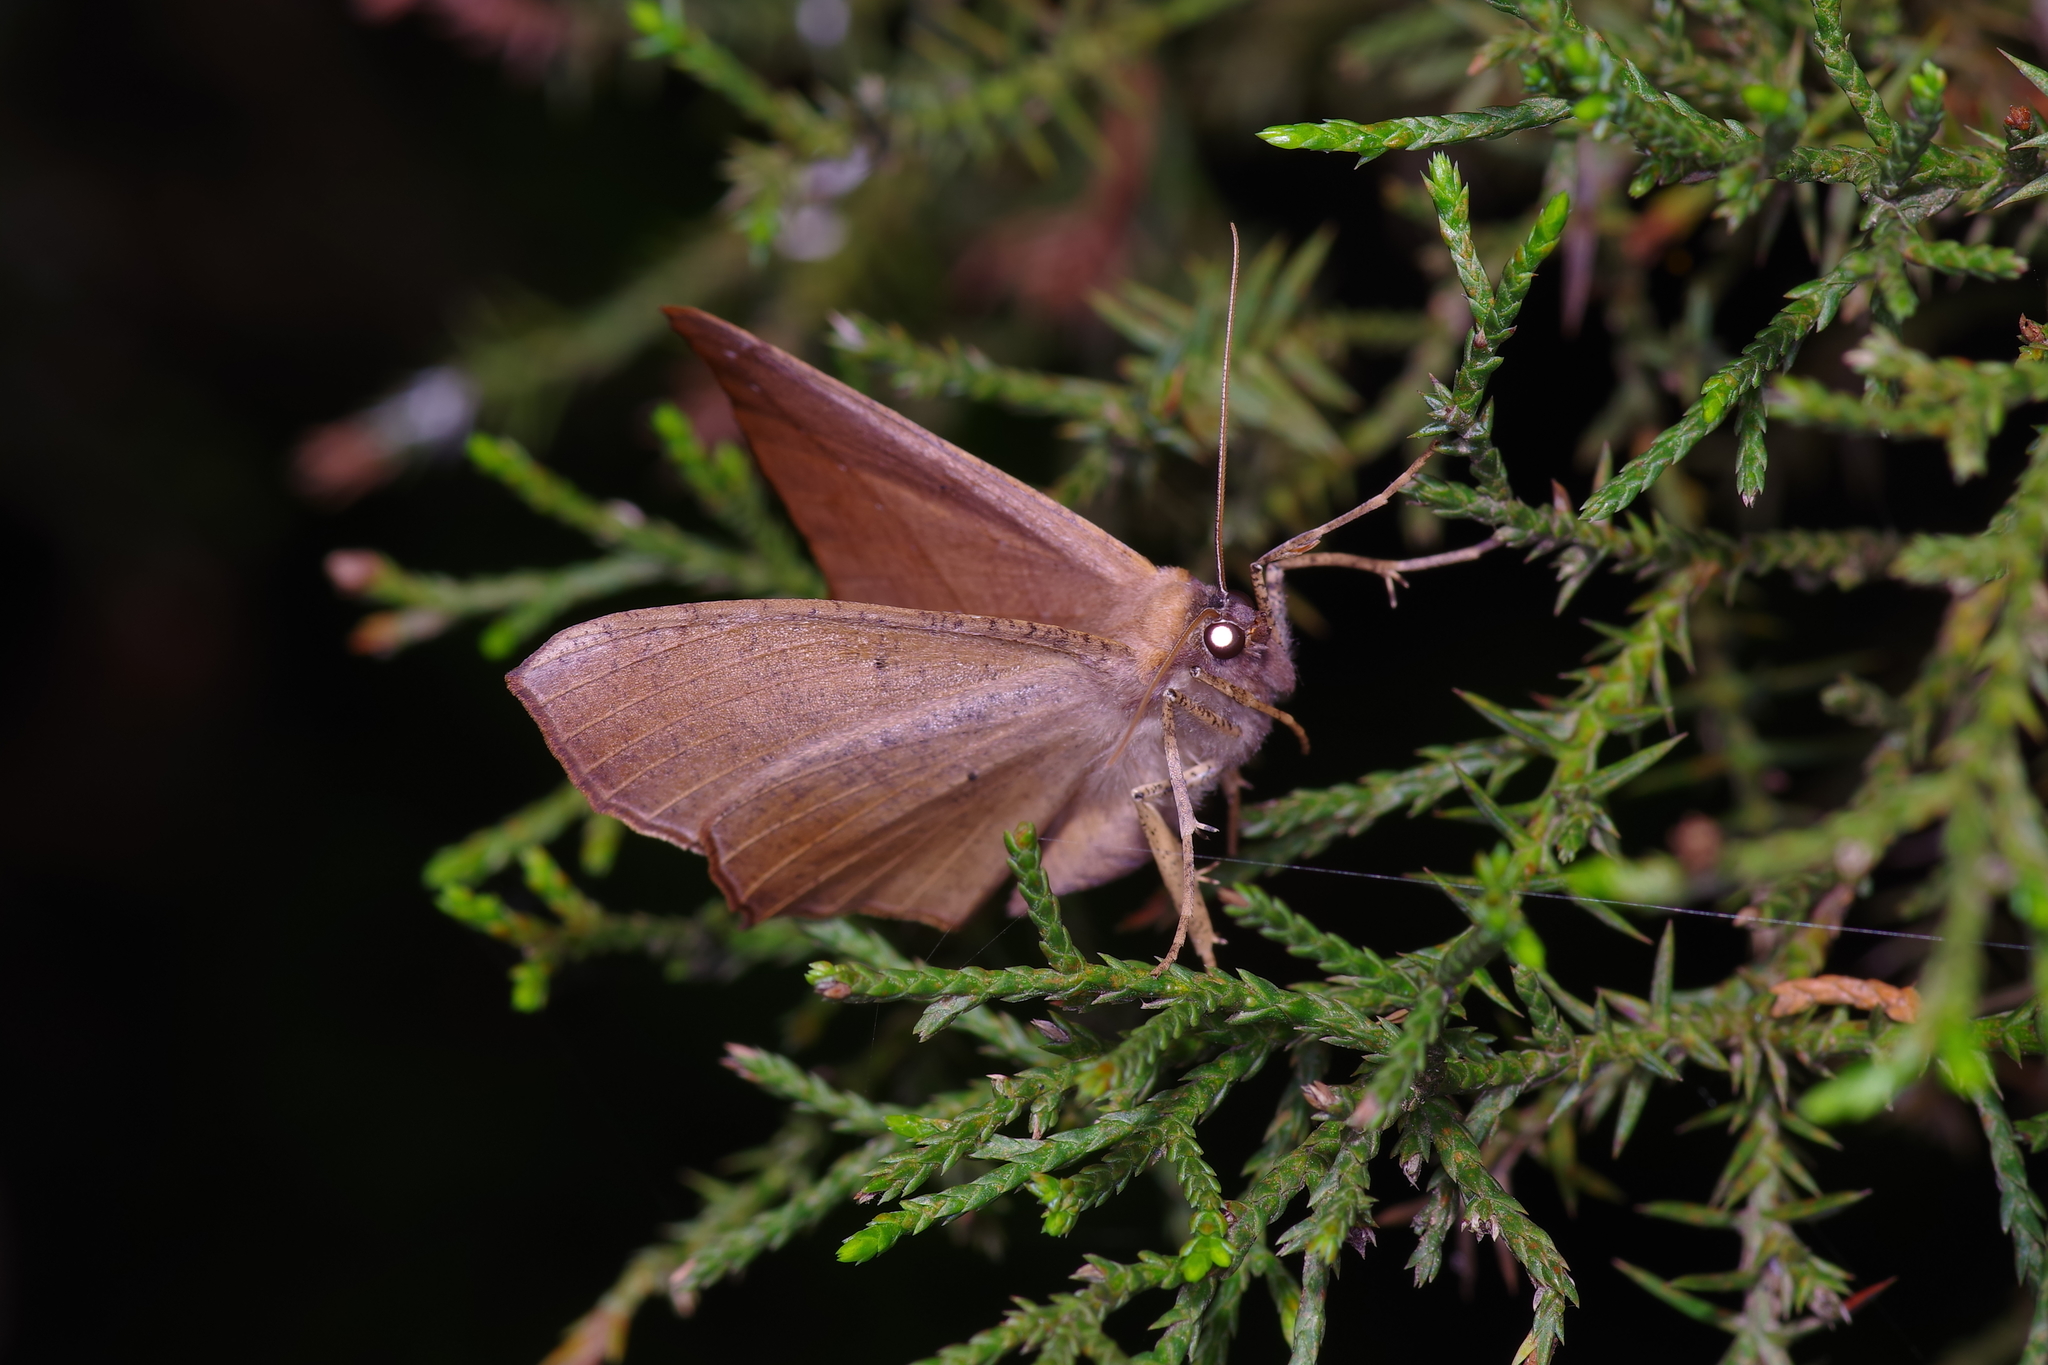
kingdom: Animalia
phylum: Arthropoda
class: Insecta
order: Lepidoptera
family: Geometridae
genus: Prochoerodes
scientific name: Prochoerodes lineola
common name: Large maple spanworm
